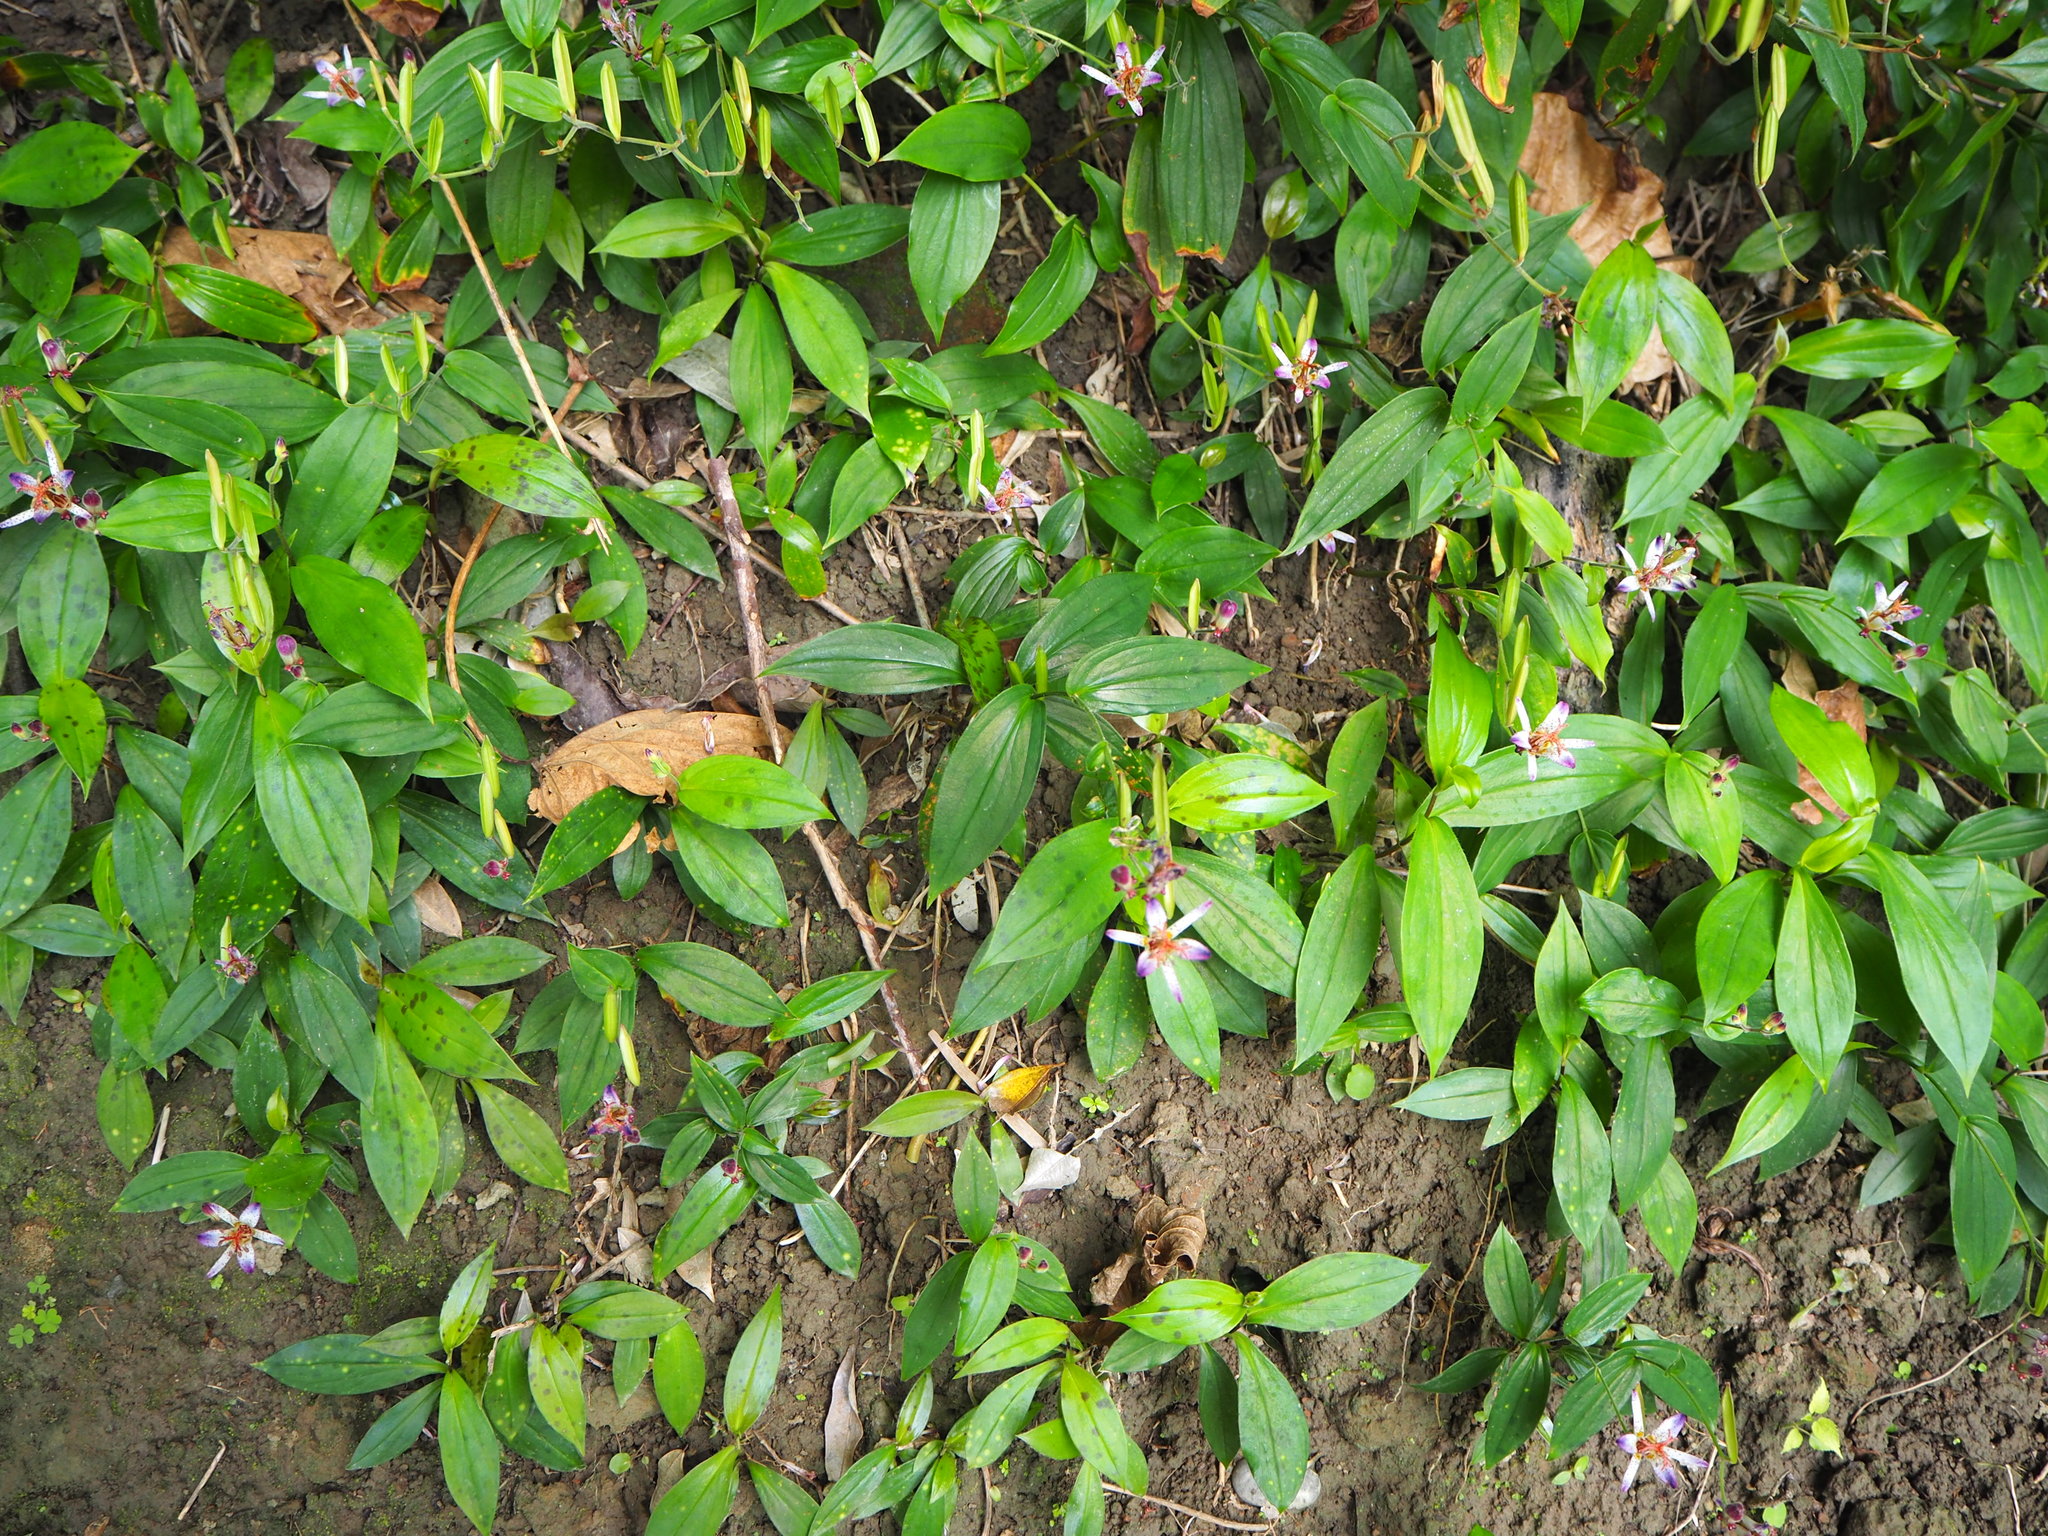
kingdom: Plantae
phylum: Tracheophyta
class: Liliopsida
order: Liliales
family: Liliaceae
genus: Tricyrtis
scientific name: Tricyrtis formosana
